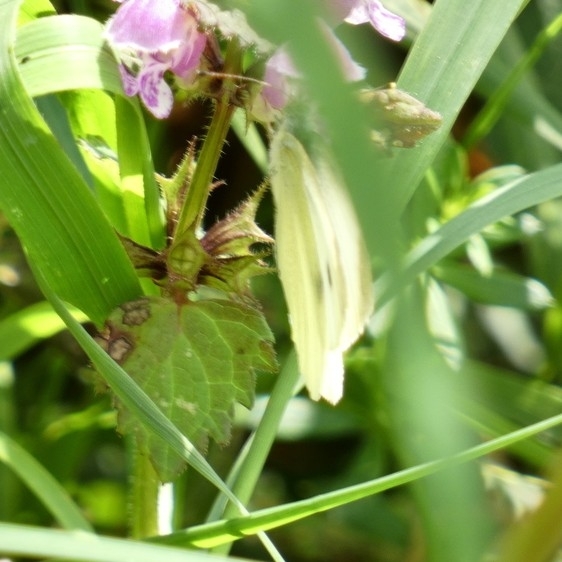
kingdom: Animalia
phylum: Arthropoda
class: Insecta
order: Lepidoptera
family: Pieridae
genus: Pieris
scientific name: Pieris rapae
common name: Small white
